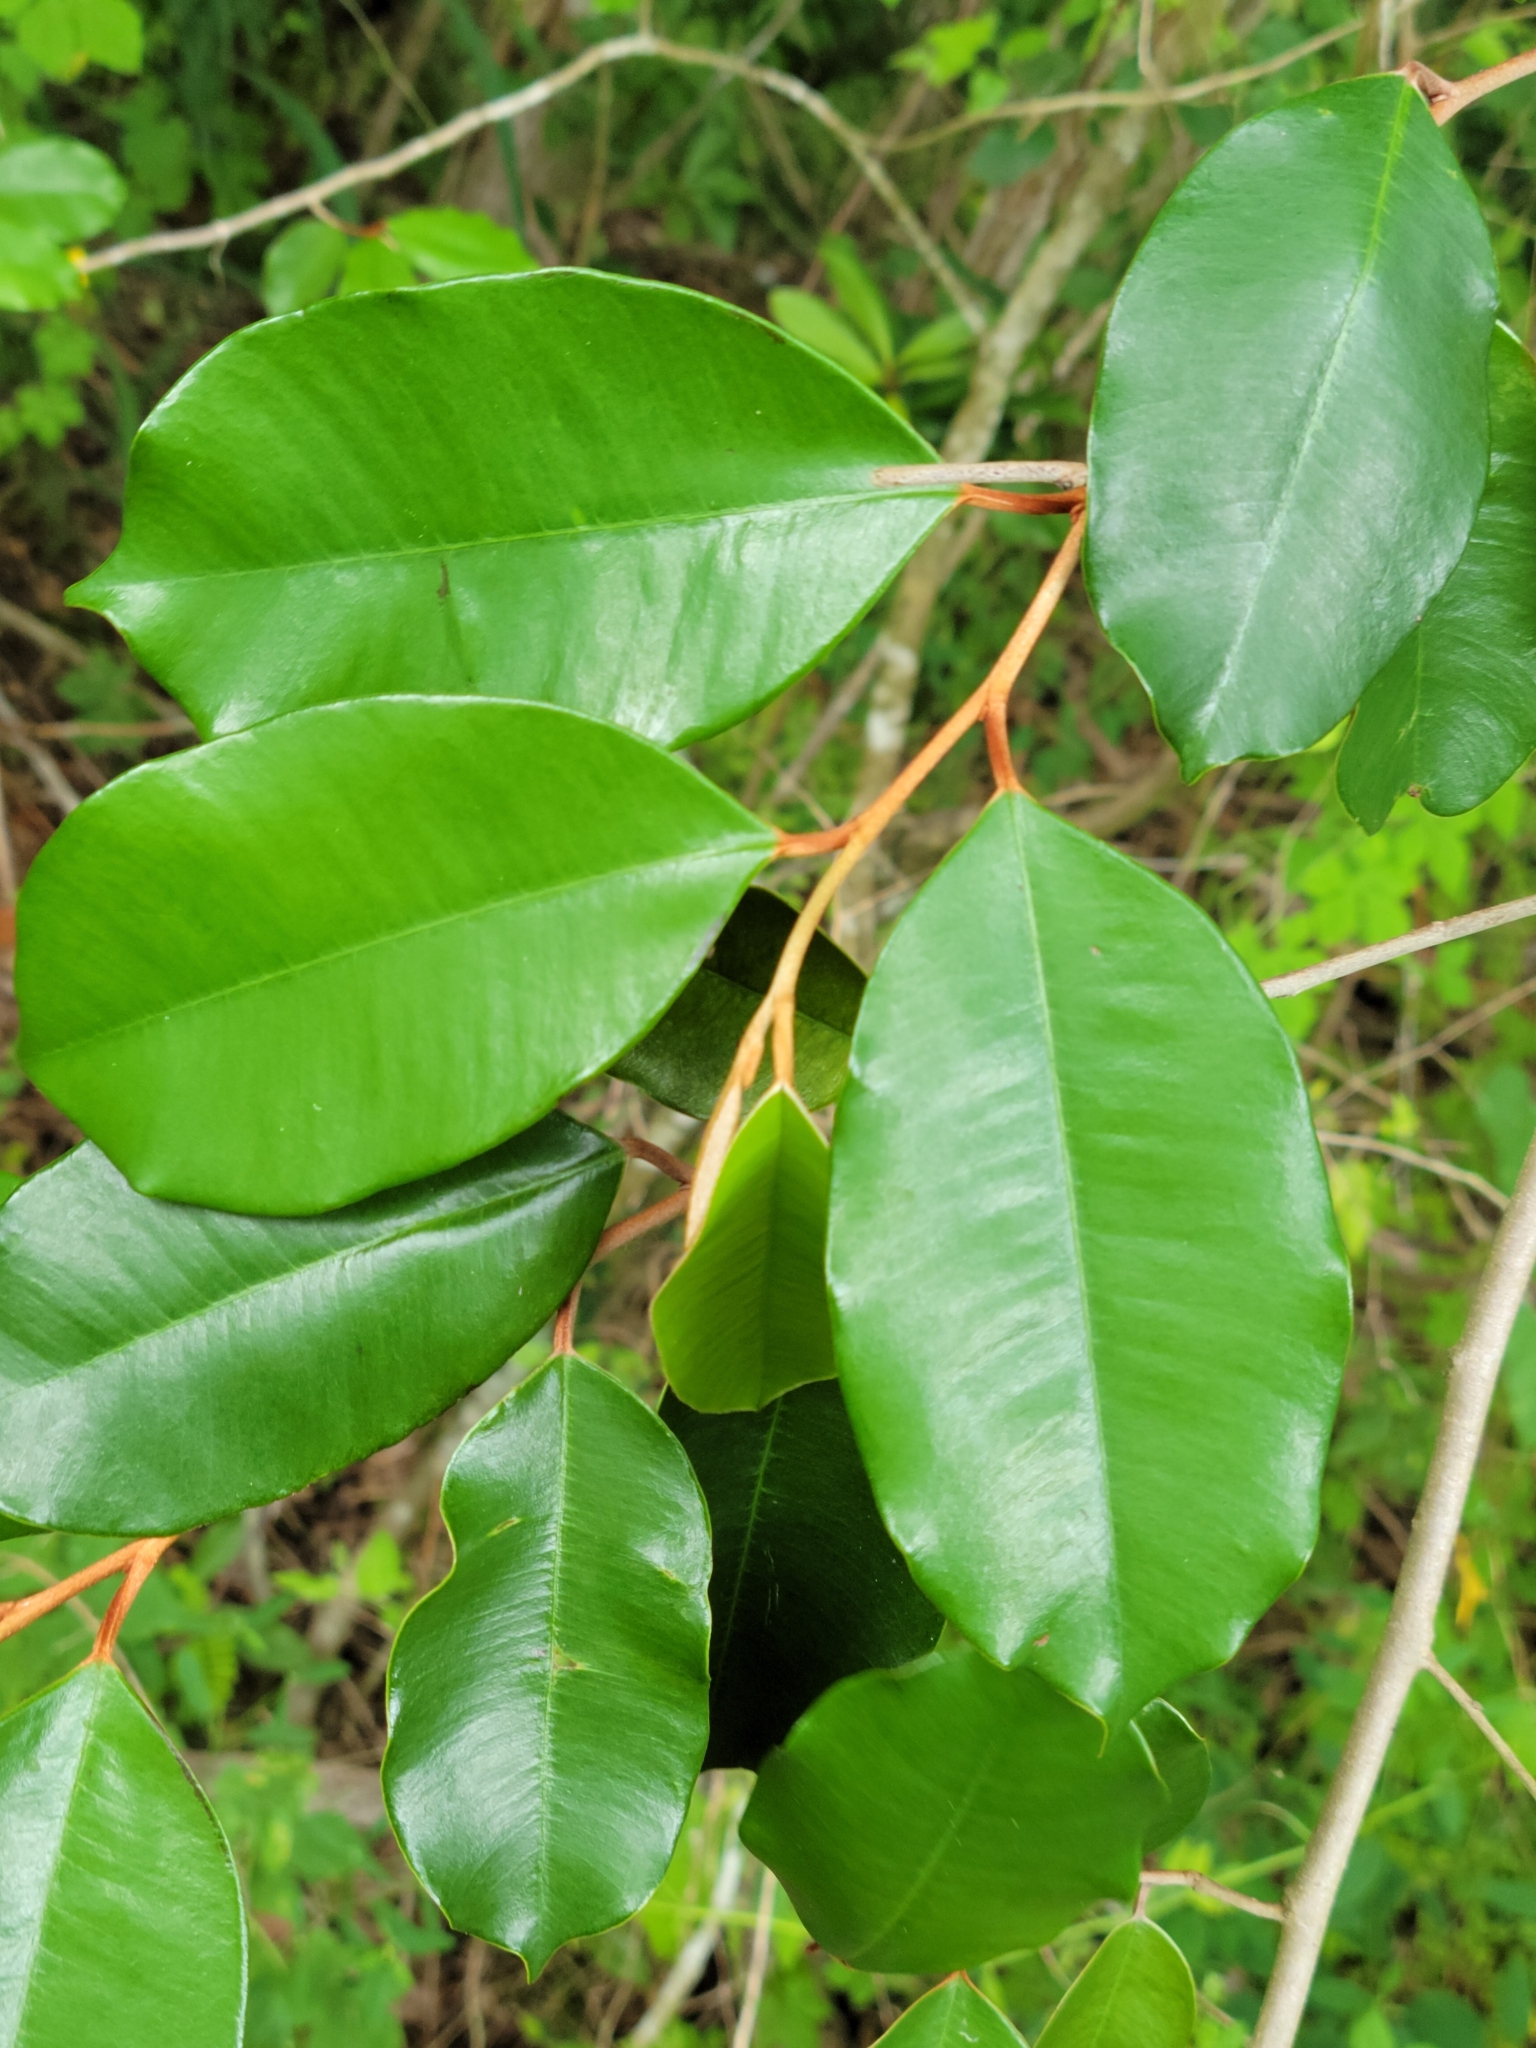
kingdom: Plantae
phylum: Tracheophyta
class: Magnoliopsida
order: Ericales
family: Sapotaceae
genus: Chrysophyllum
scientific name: Chrysophyllum oliviforme
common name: Satinleaf
